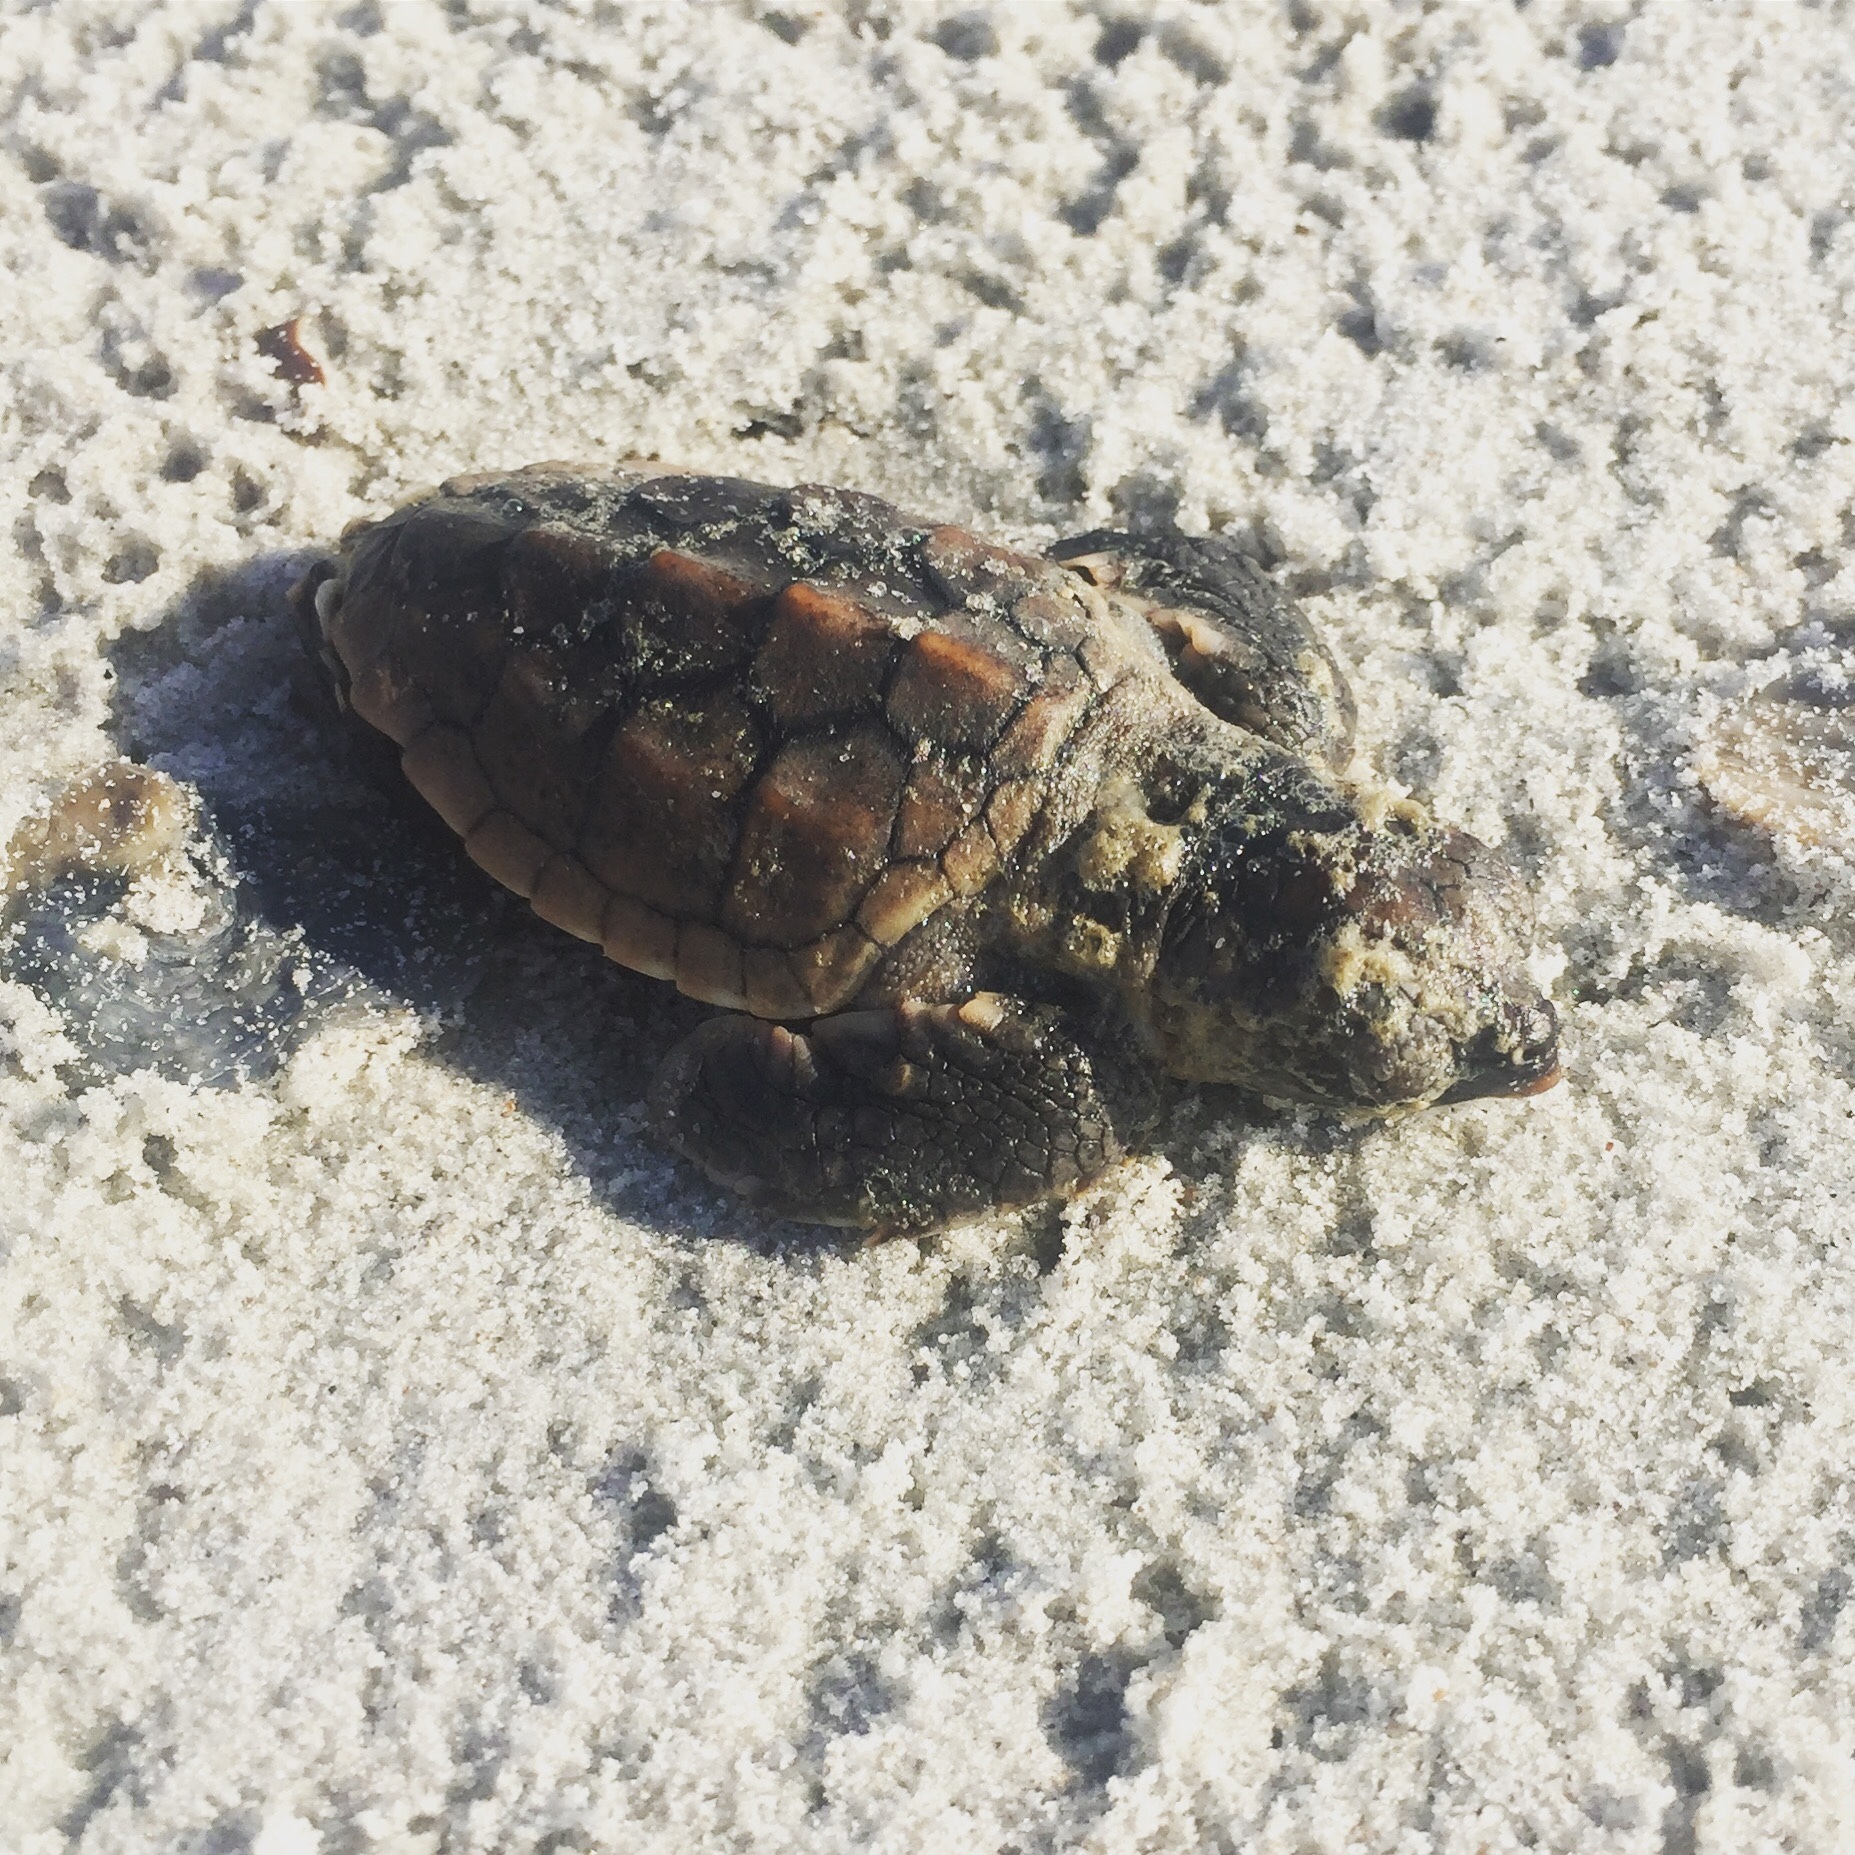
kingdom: Animalia
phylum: Chordata
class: Testudines
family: Cheloniidae
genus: Caretta
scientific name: Caretta caretta
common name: Loggerhead sea turtle
